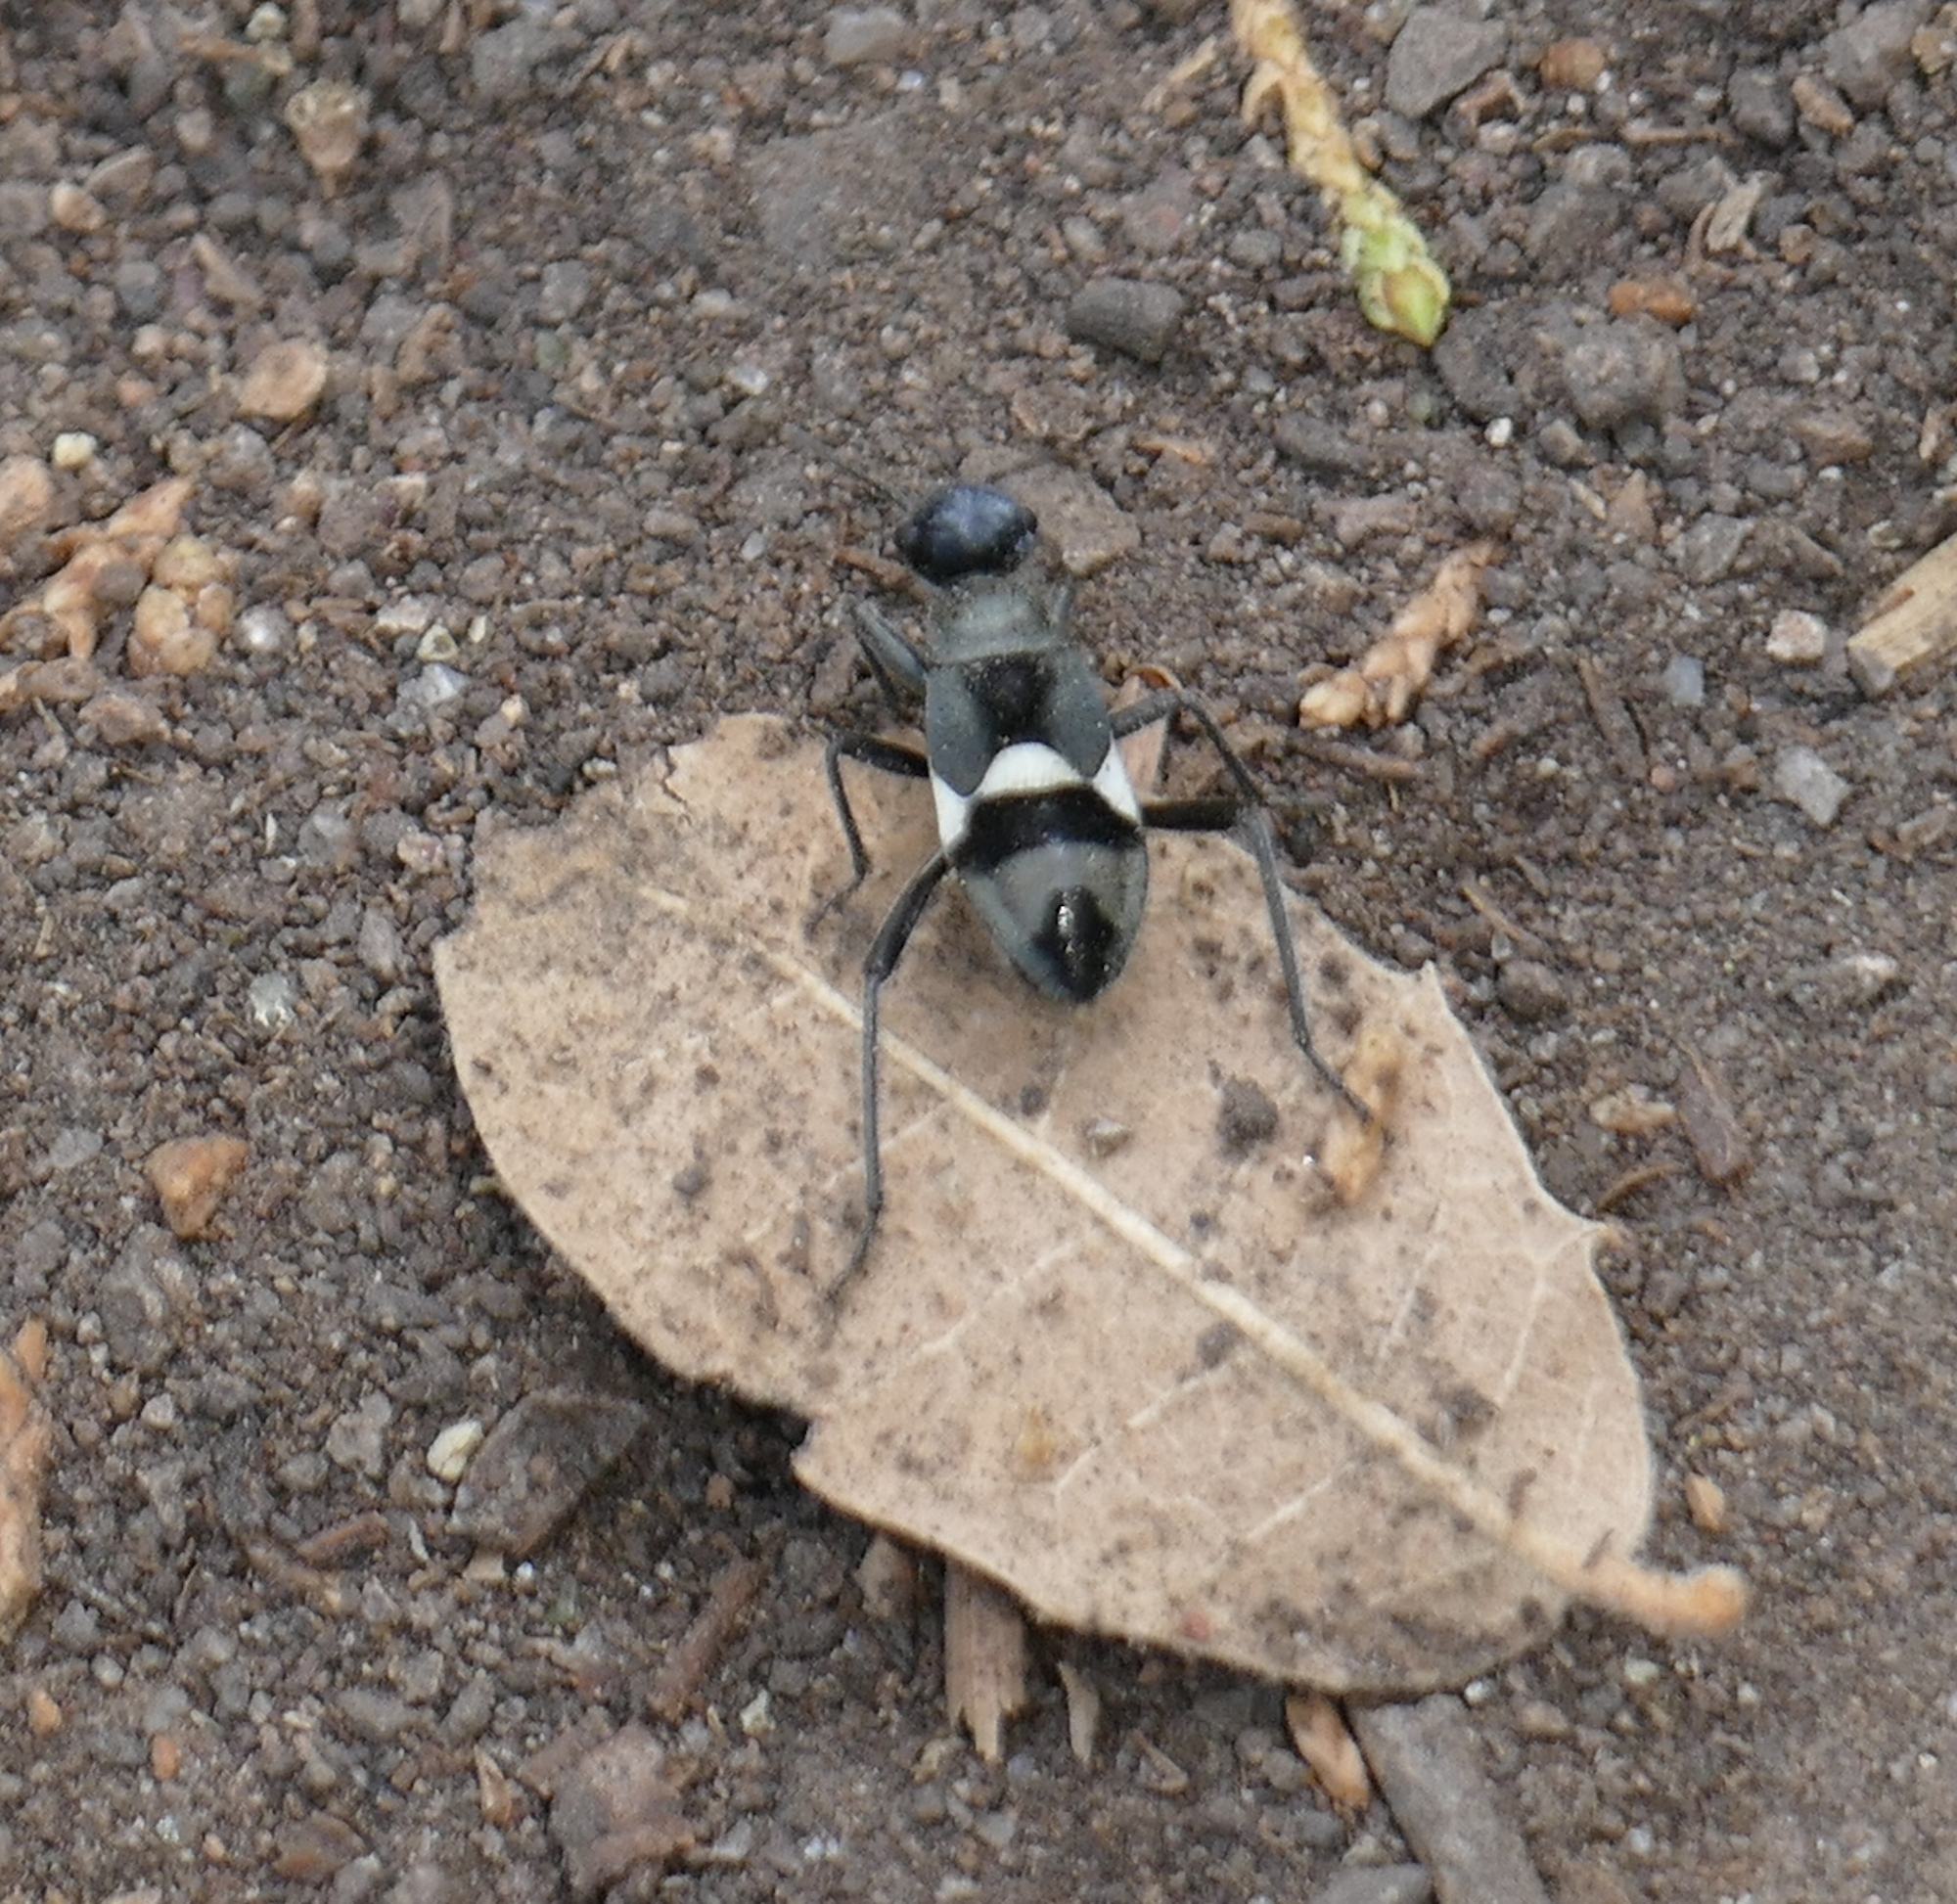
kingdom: Animalia
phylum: Arthropoda
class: Insecta
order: Hemiptera
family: Largidae
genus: Arhaphe
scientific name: Arhaphe arguta
